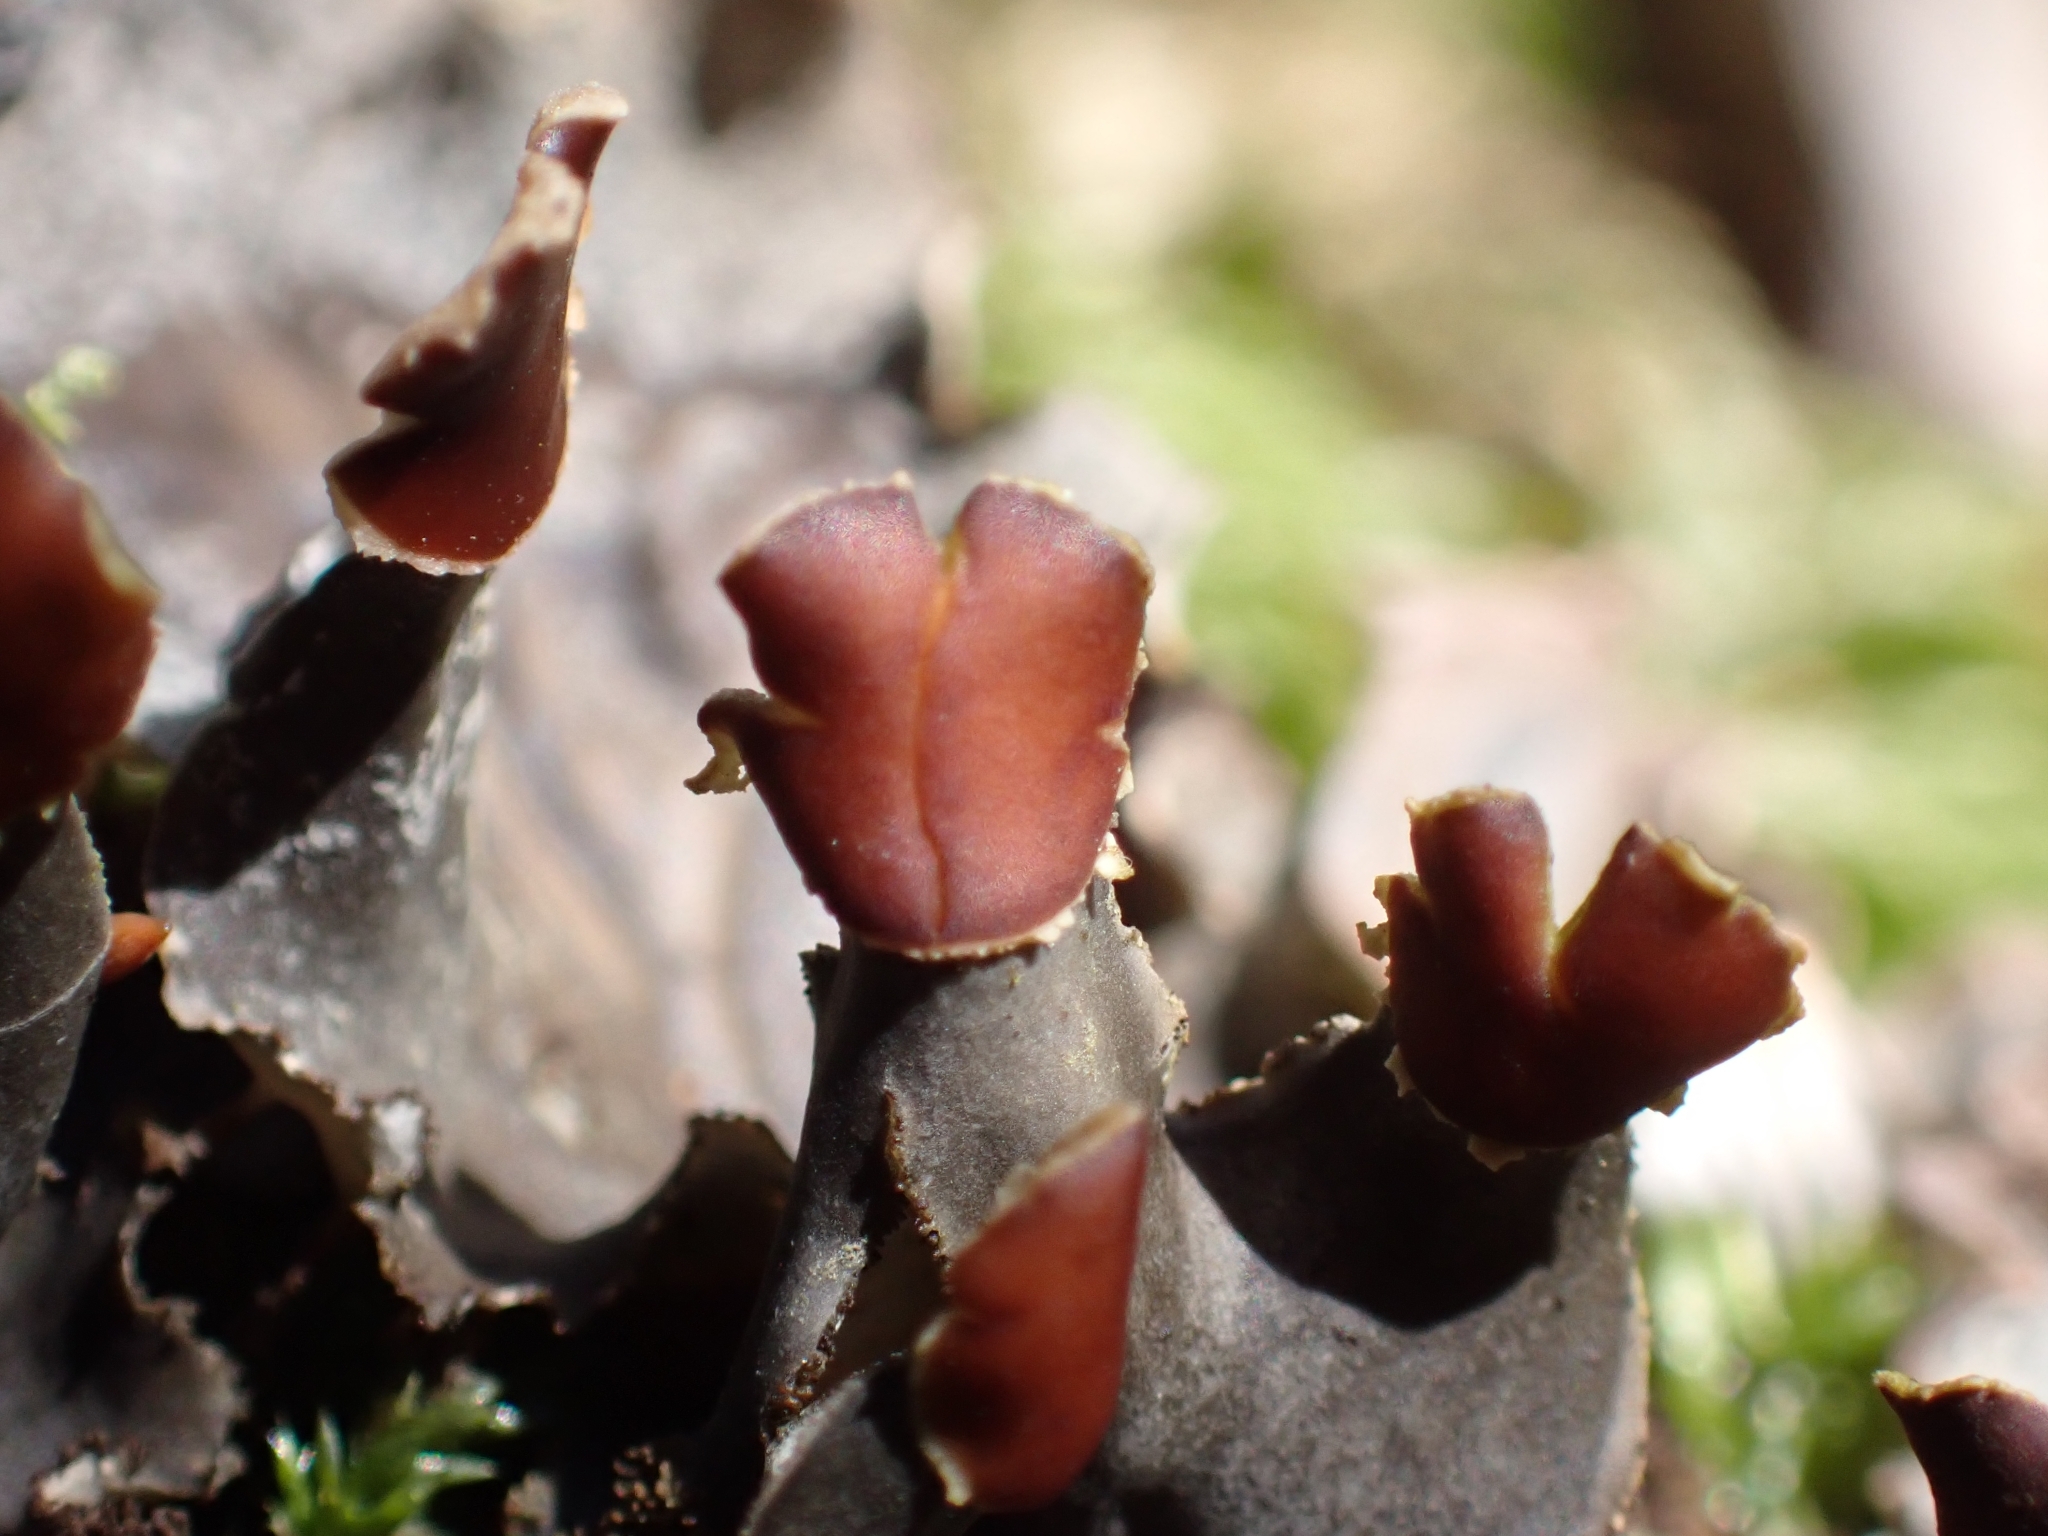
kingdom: Fungi
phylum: Ascomycota
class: Lecanoromycetes
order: Peltigerales
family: Peltigeraceae
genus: Peltigera
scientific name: Peltigera praetextata
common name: Scaly dog-lichen
